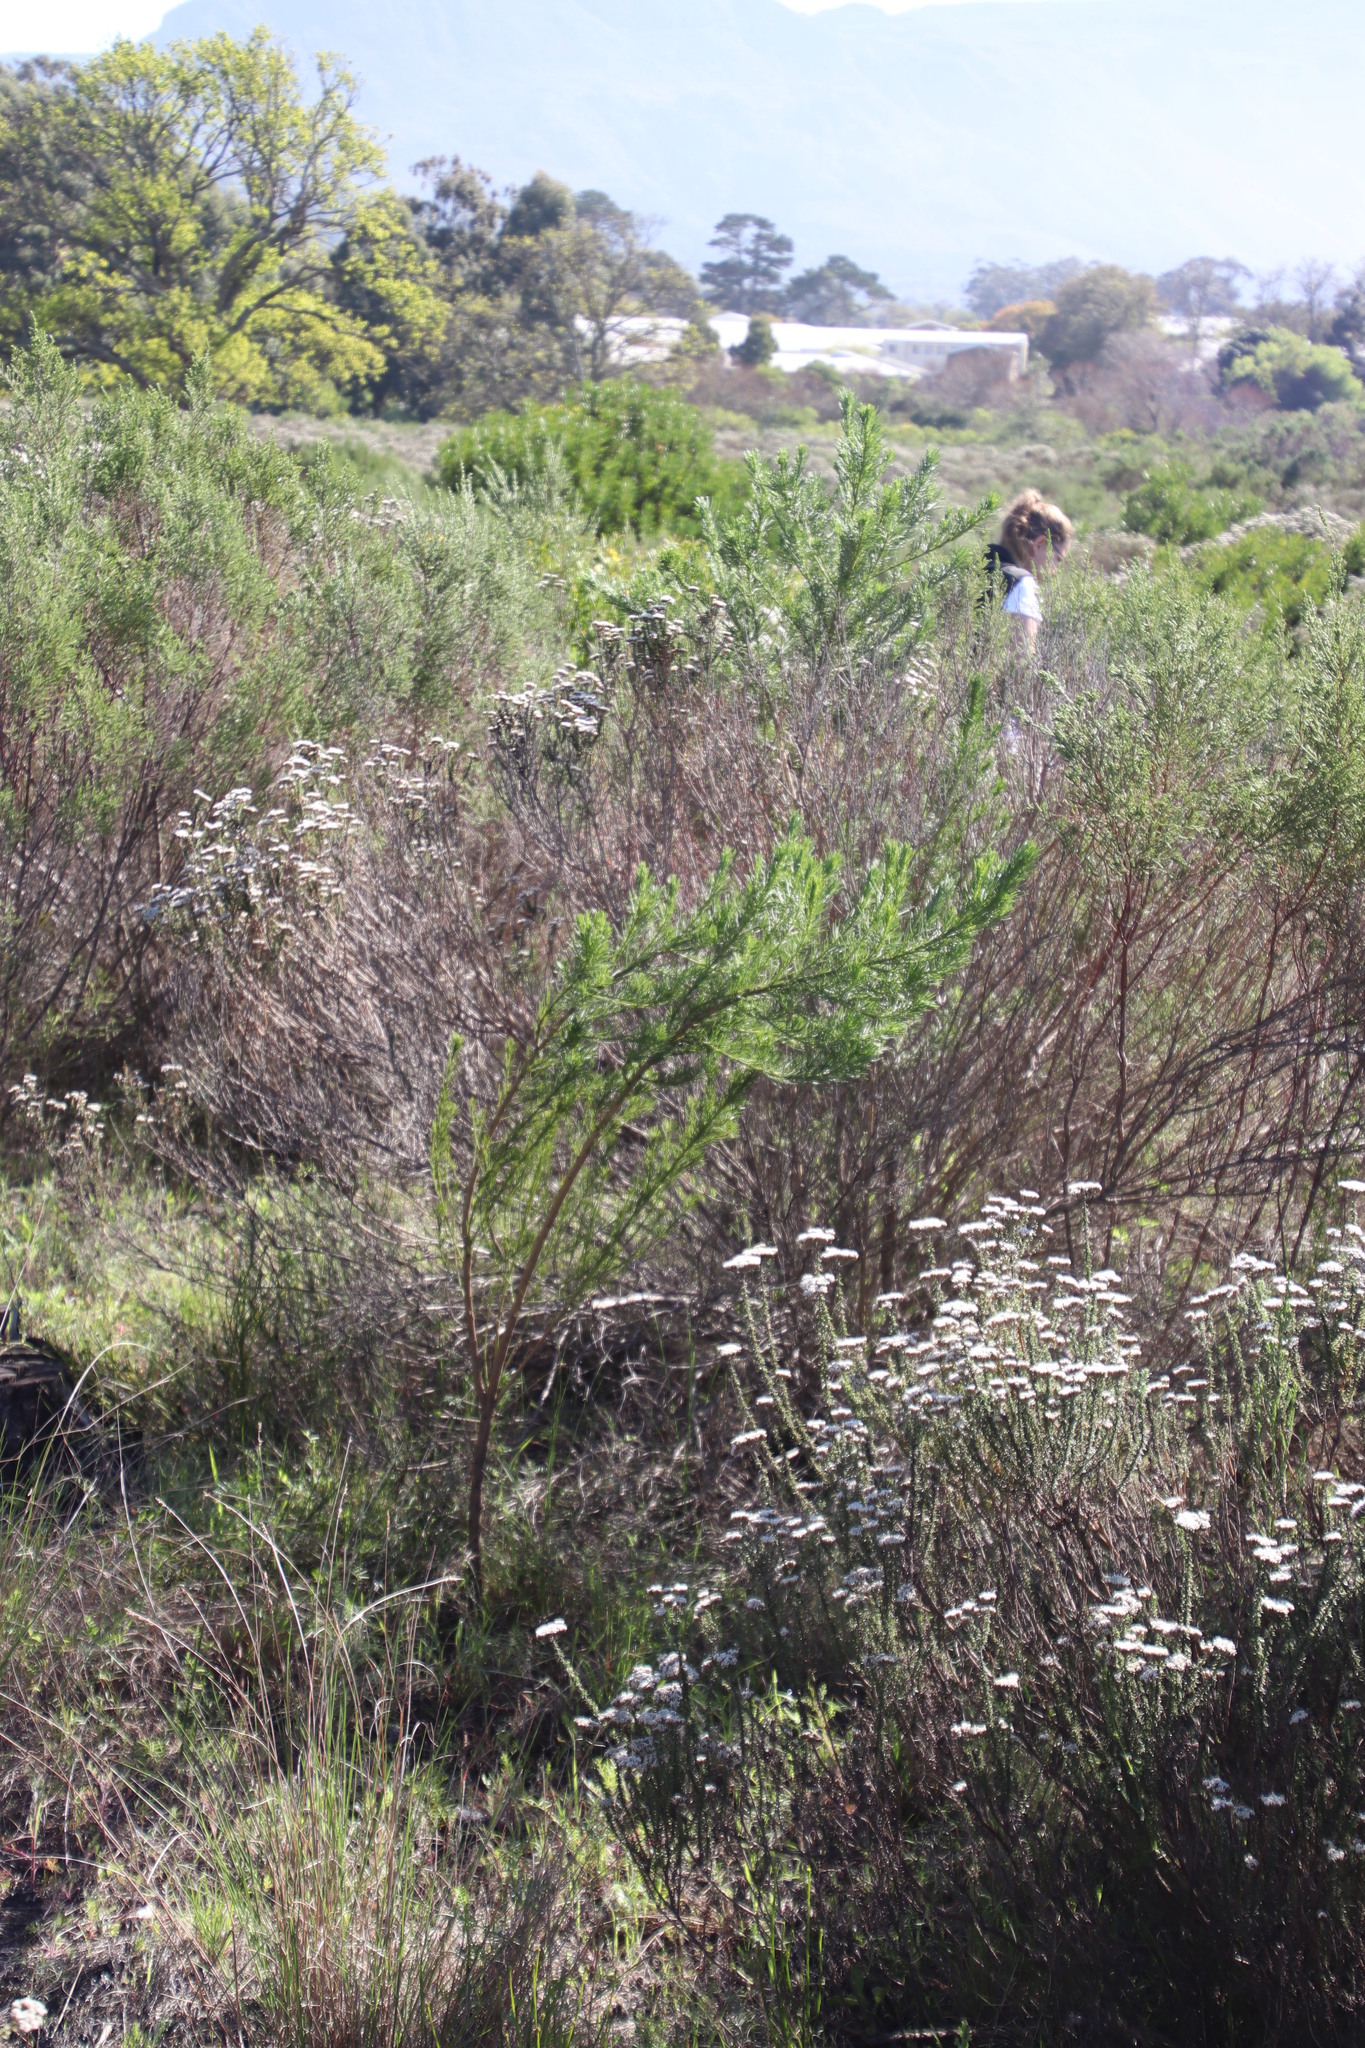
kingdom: Plantae
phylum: Tracheophyta
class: Magnoliopsida
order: Fabales
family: Fabaceae
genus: Psoralea
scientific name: Psoralea pinnata
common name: African scurfpea
